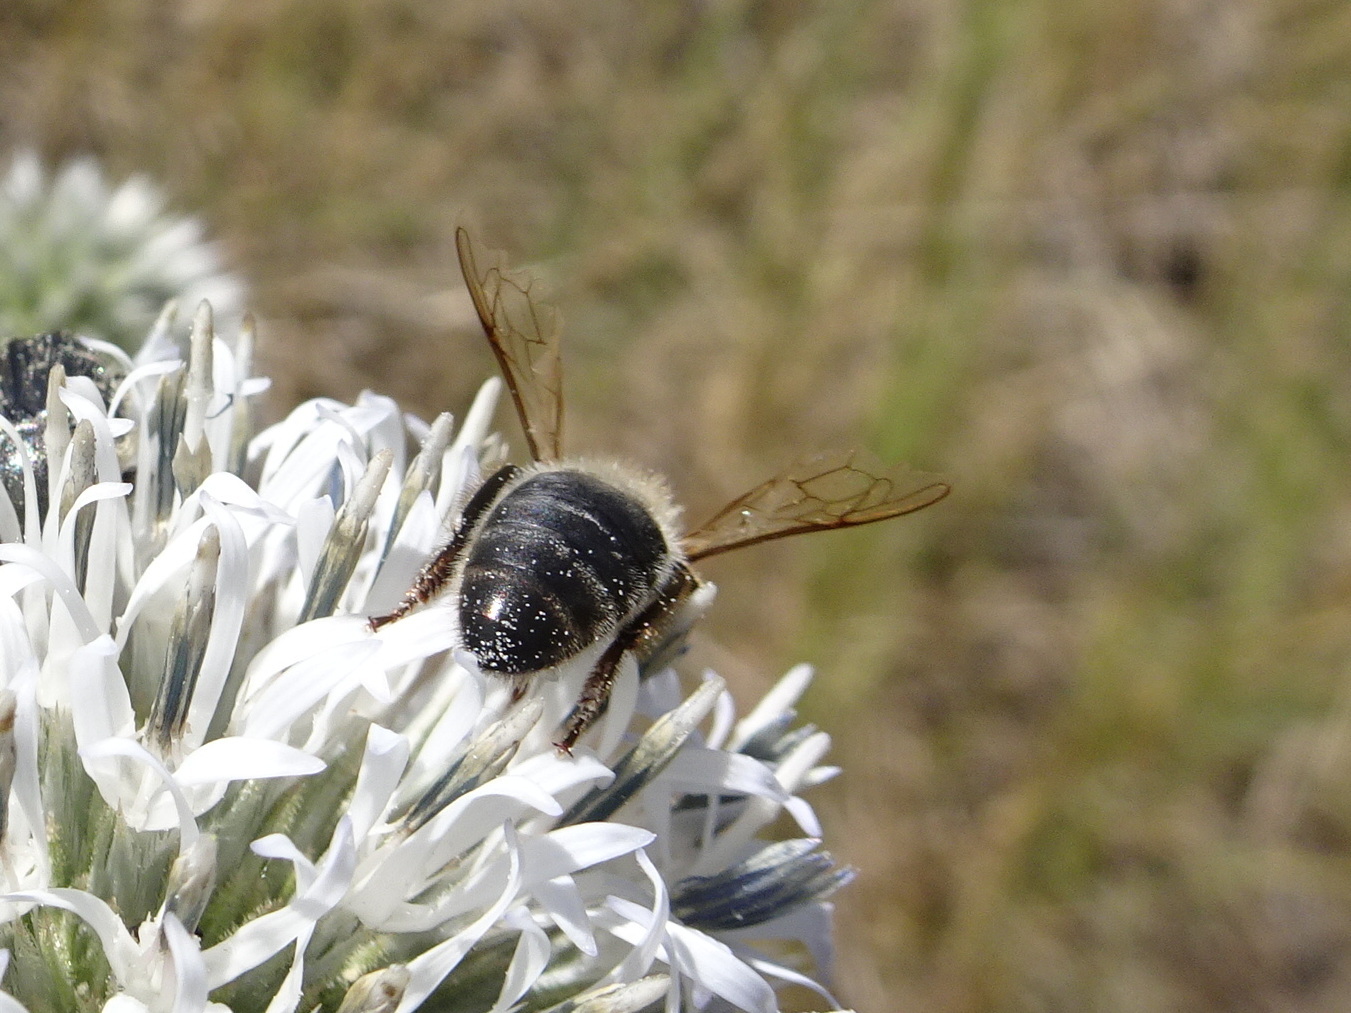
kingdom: Animalia
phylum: Arthropoda
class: Insecta
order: Hymenoptera
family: Apidae
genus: Apis
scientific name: Apis mellifera
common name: Honey bee
